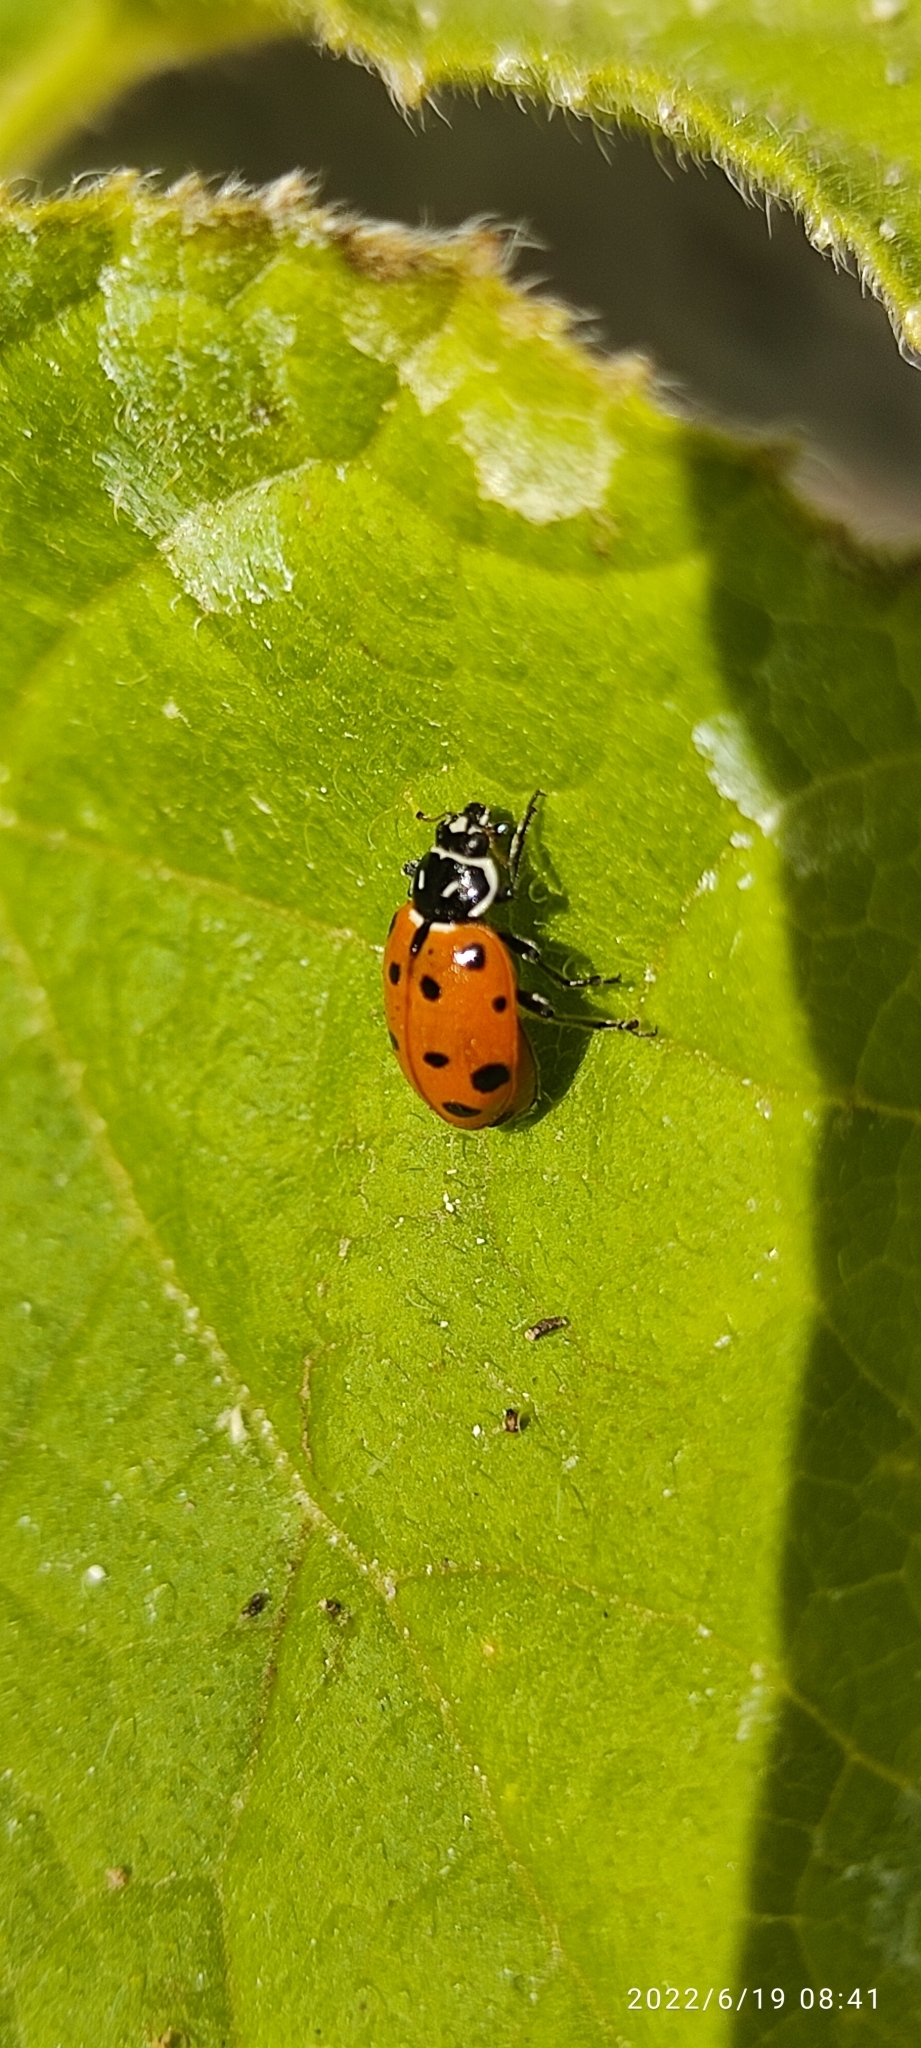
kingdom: Animalia
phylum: Arthropoda
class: Insecta
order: Coleoptera
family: Coccinellidae
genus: Hippodamia
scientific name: Hippodamia convergens
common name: Convergent lady beetle
